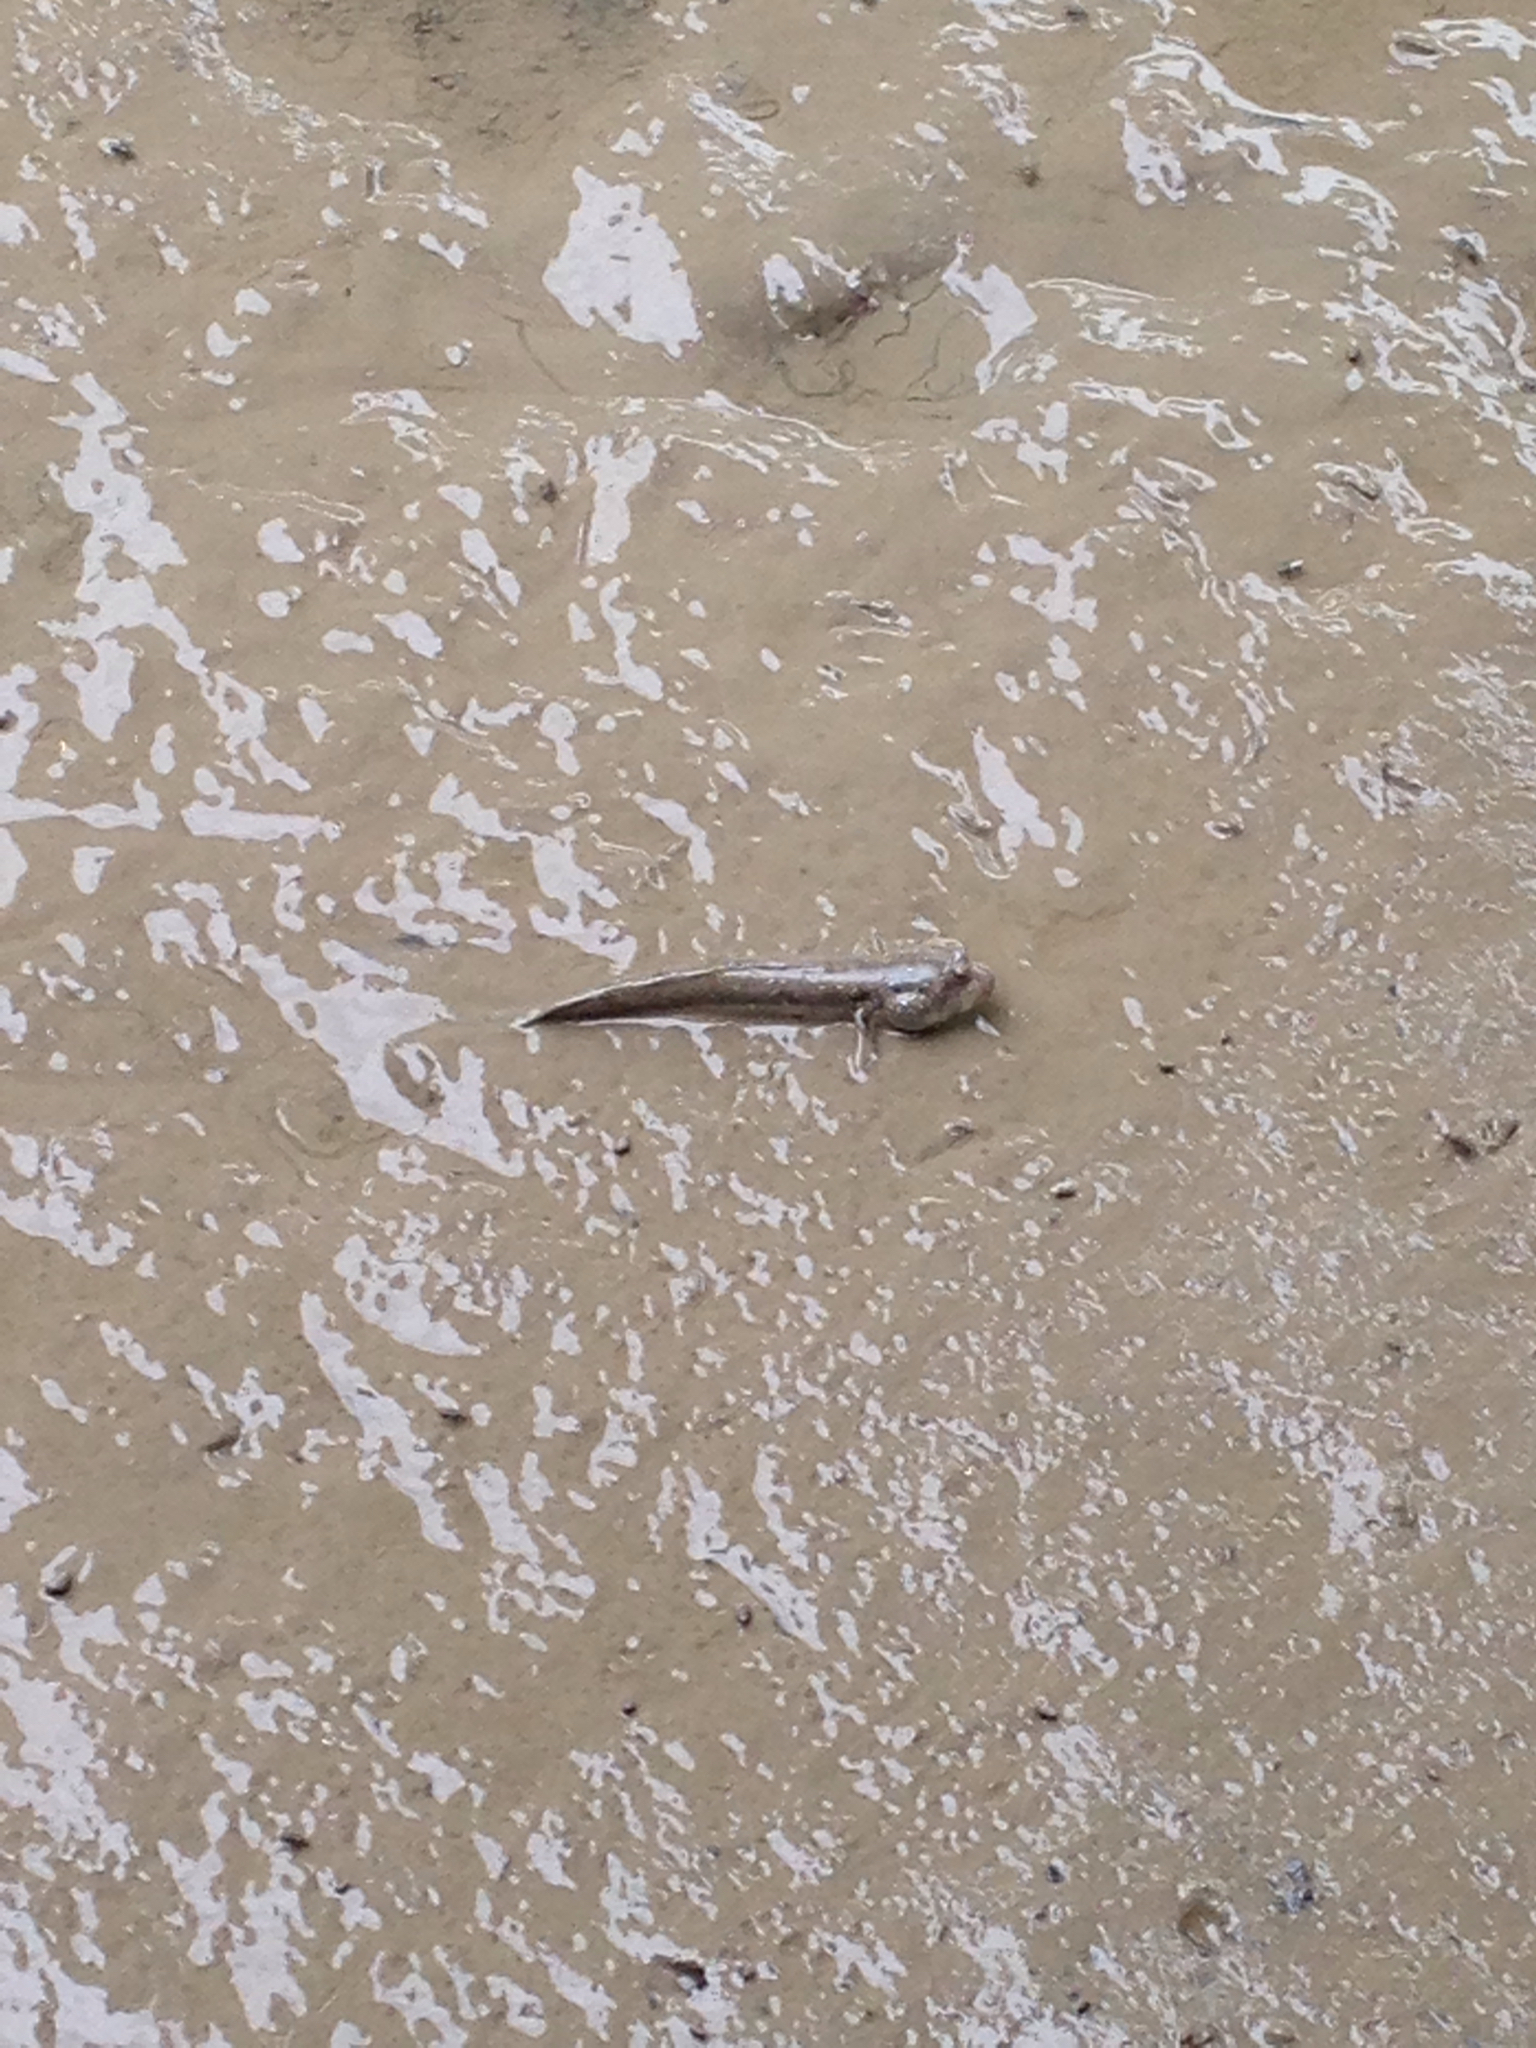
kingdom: Animalia
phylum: Chordata
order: Perciformes
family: Gobiidae
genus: Boleophthalmus
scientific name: Boleophthalmus pectinirostris
